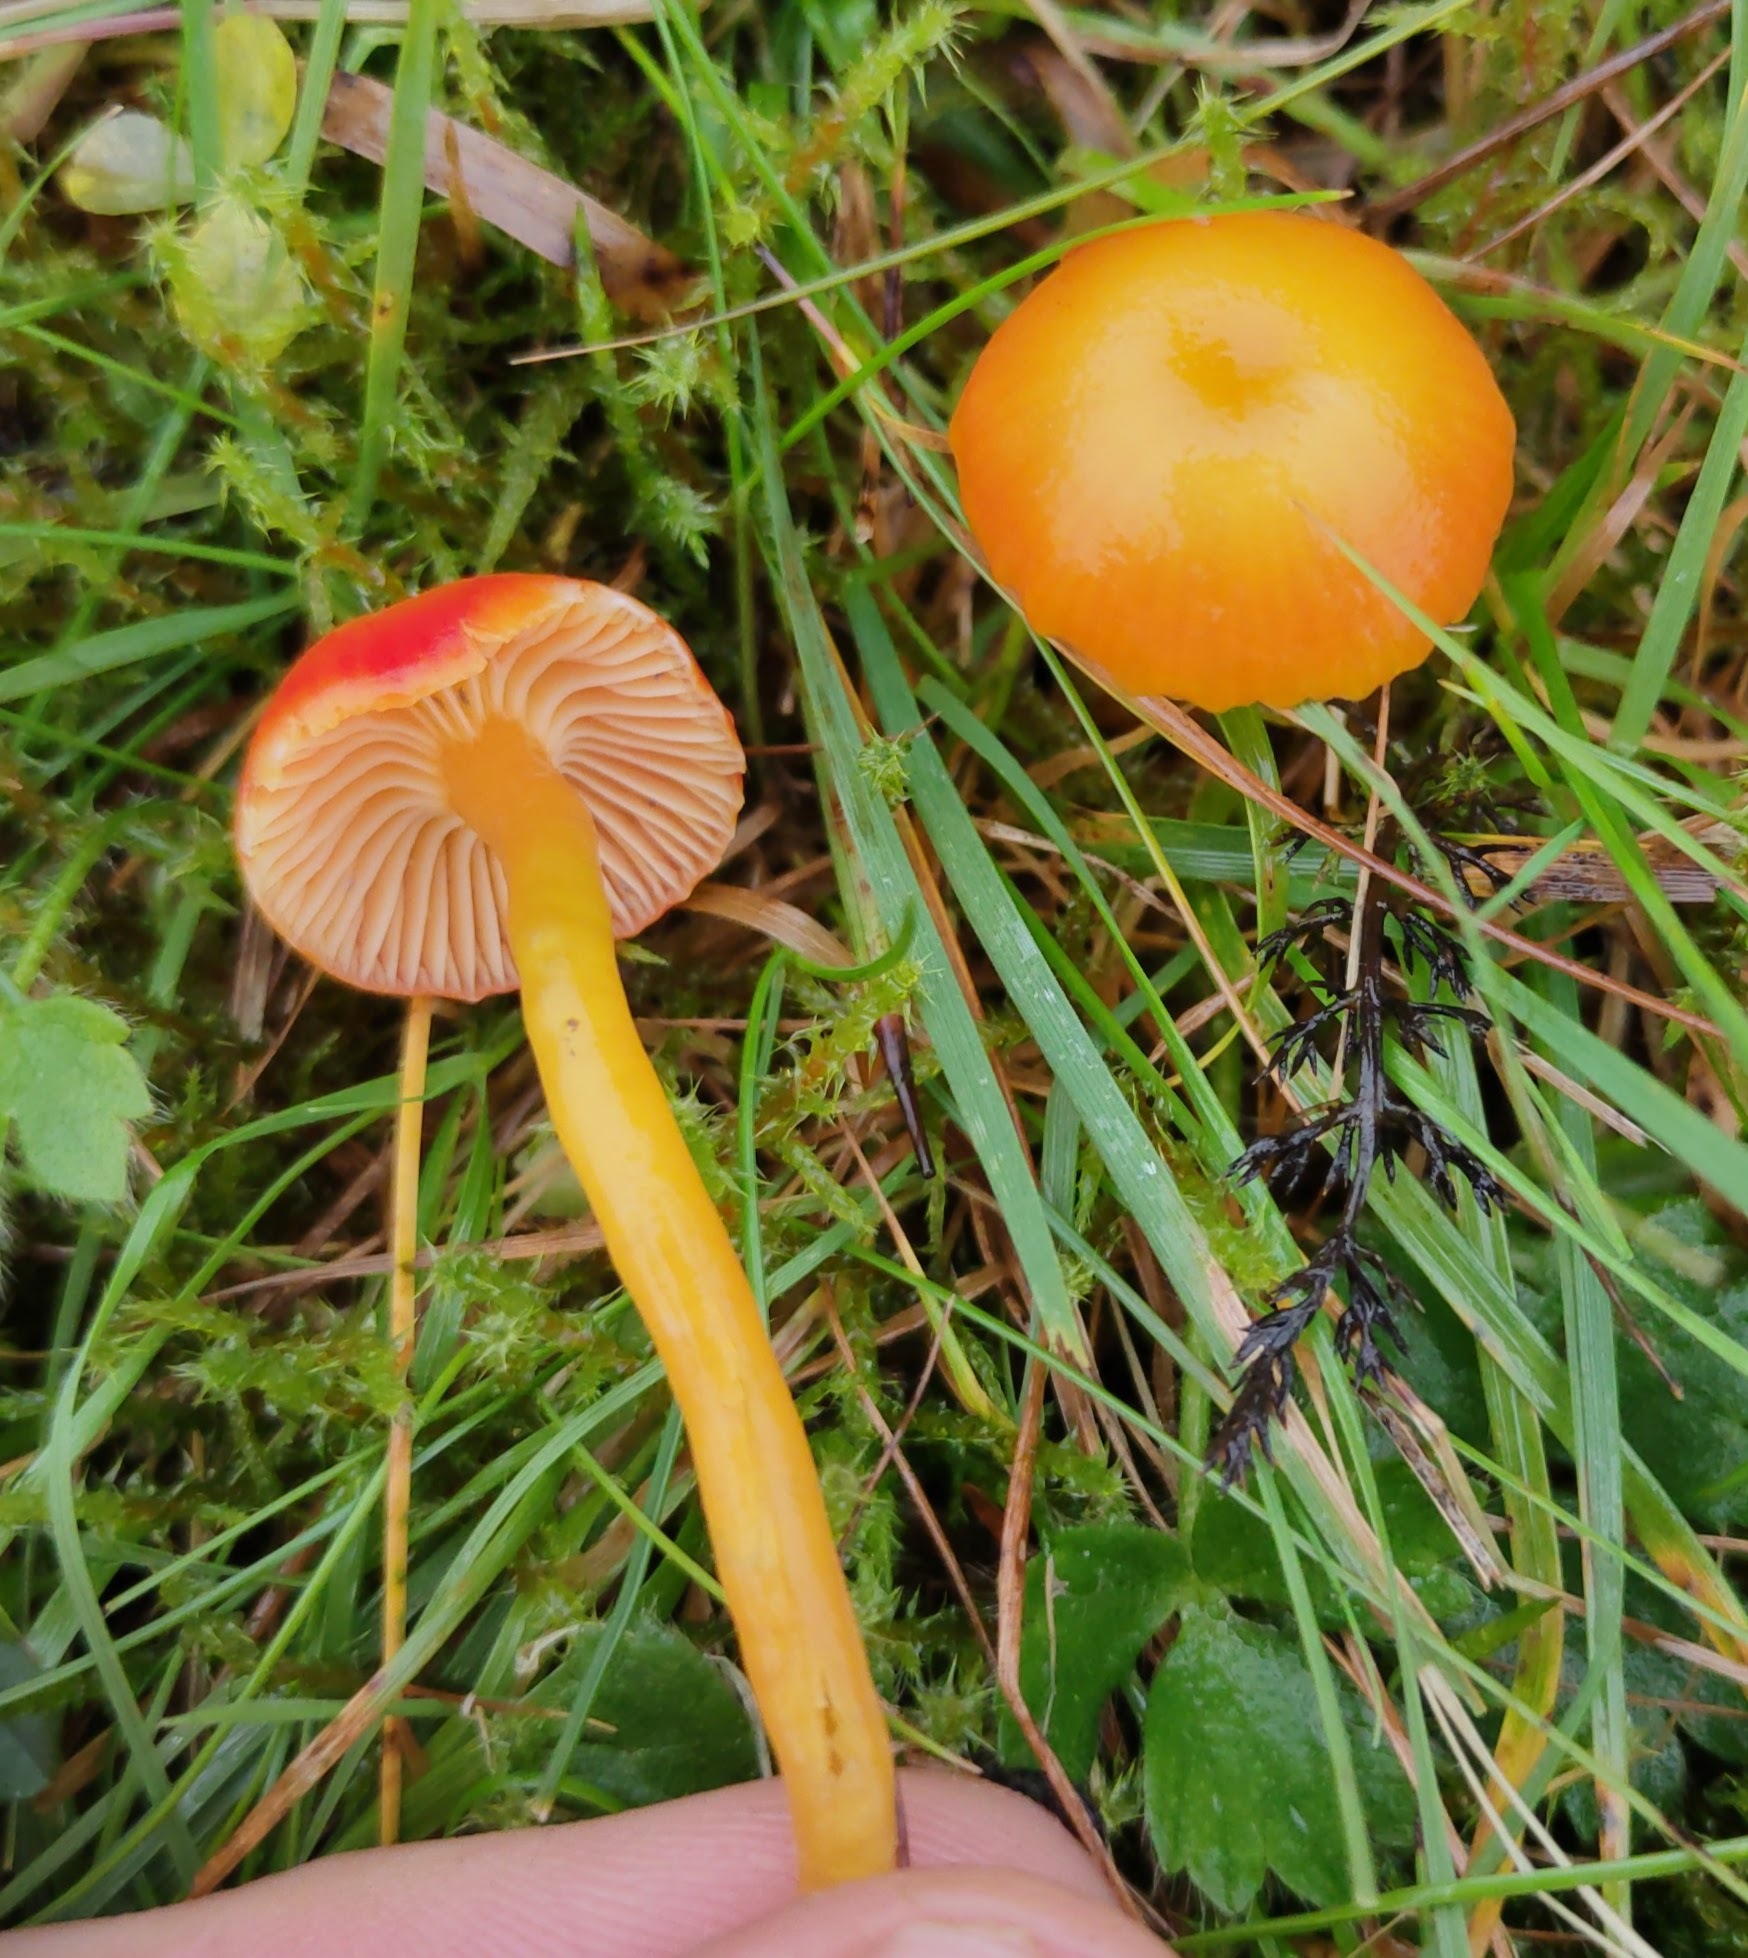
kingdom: Fungi
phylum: Basidiomycota
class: Agaricomycetes
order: Agaricales
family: Hygrophoraceae
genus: Hygrocybe
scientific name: Hygrocybe insipida
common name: Spangle waxcap
